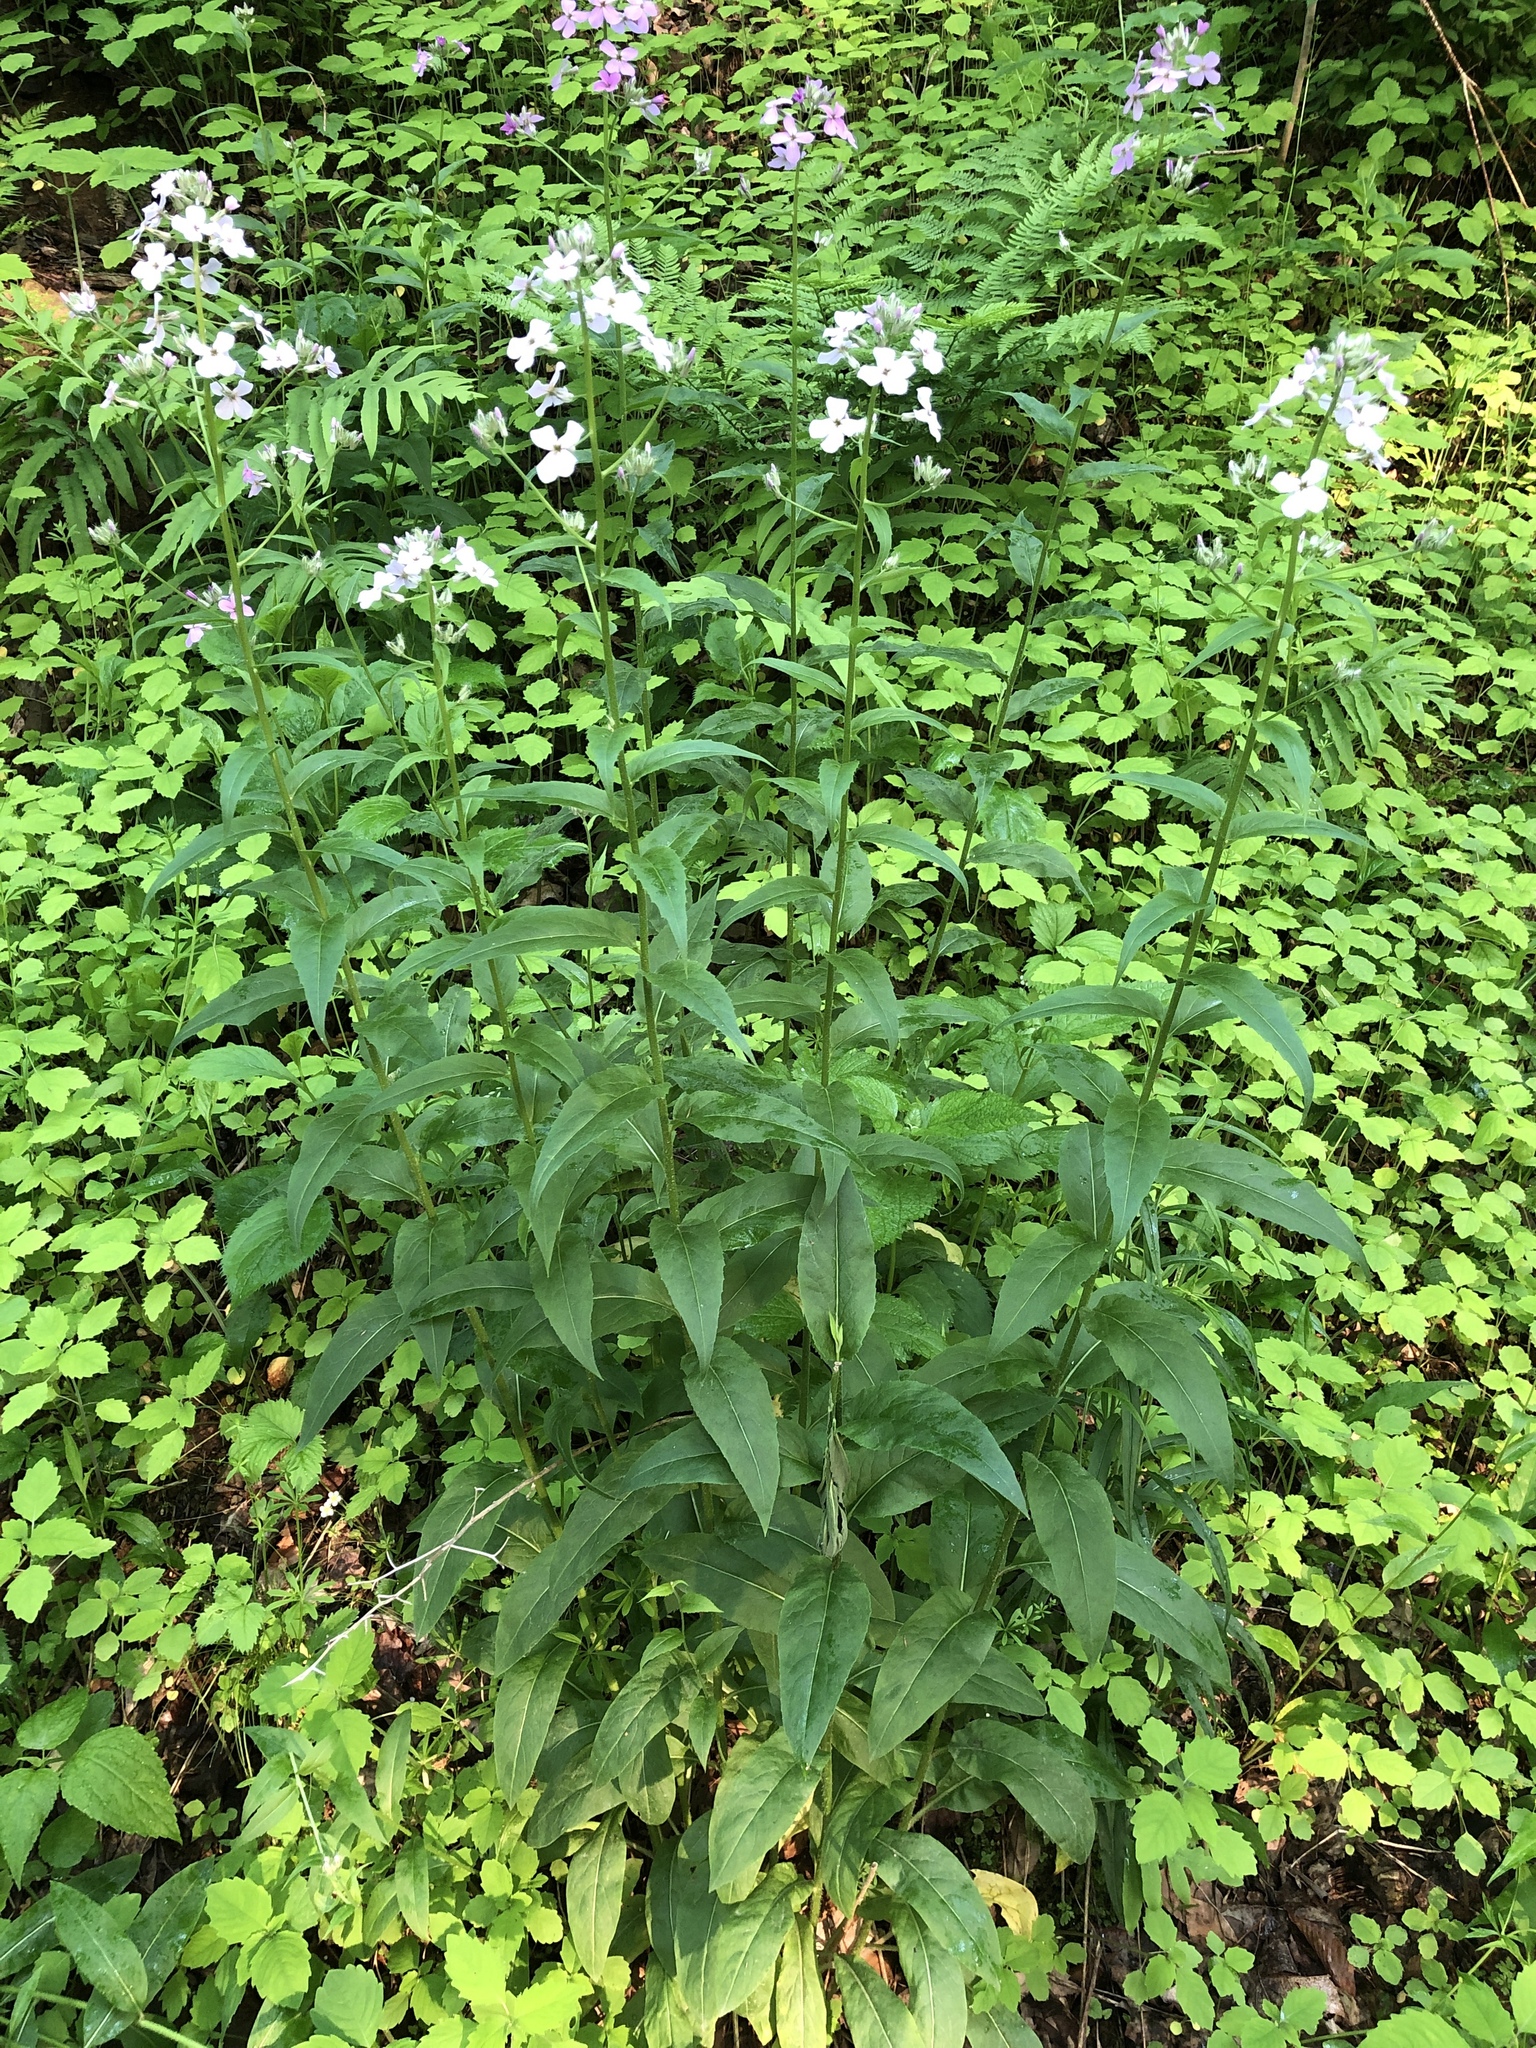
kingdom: Plantae
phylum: Tracheophyta
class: Magnoliopsida
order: Brassicales
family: Brassicaceae
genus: Hesperis
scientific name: Hesperis matronalis
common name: Dame's-violet
